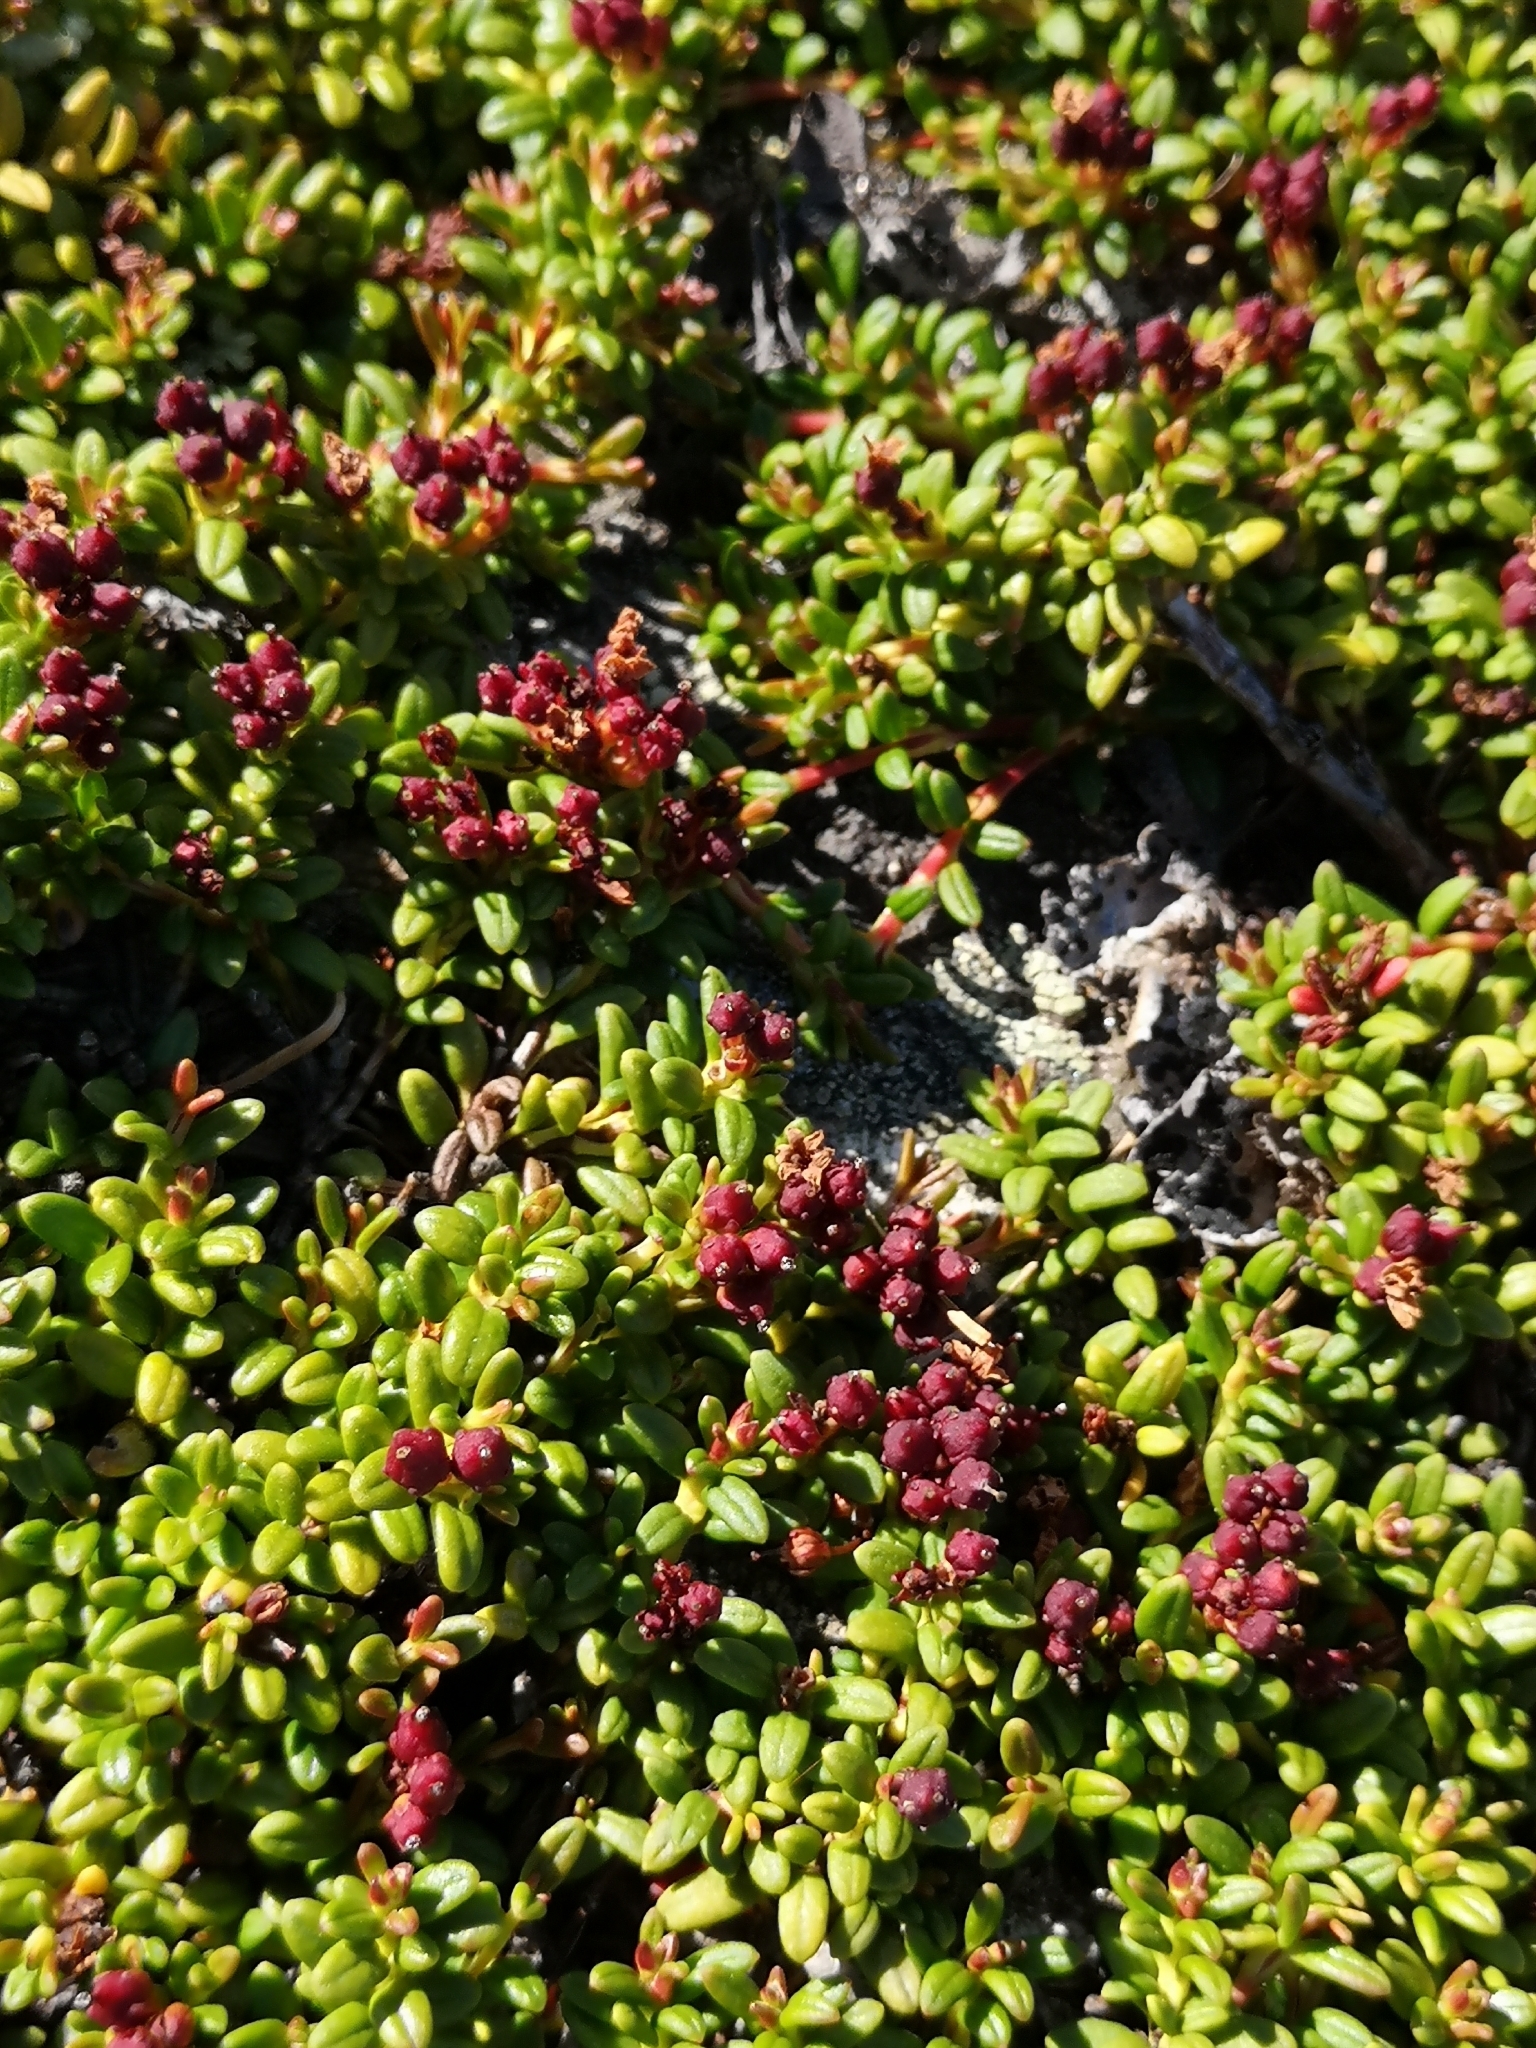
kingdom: Plantae
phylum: Tracheophyta
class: Magnoliopsida
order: Ericales
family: Ericaceae
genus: Kalmia
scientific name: Kalmia procumbens
